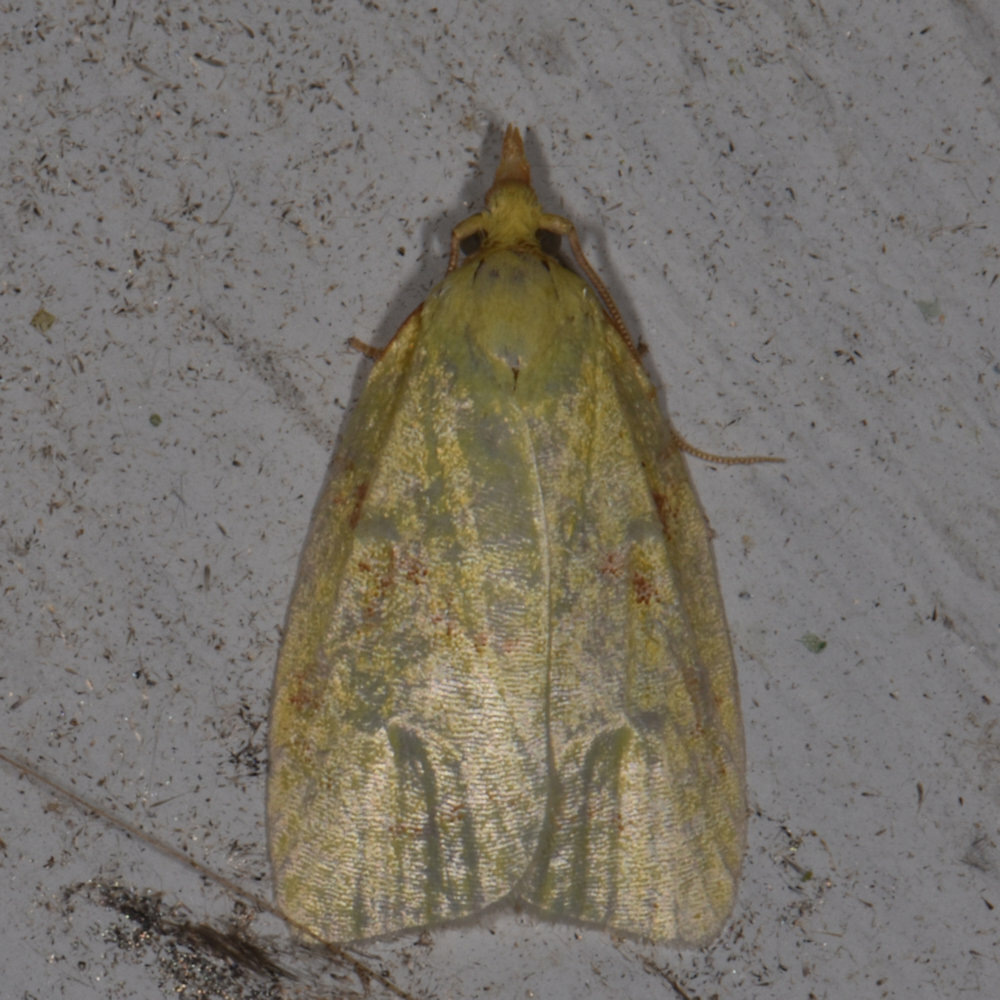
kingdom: Animalia
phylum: Arthropoda
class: Insecta
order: Lepidoptera
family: Tortricidae
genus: Cenopis
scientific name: Cenopis pettitana
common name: Maple-basswood leafroller moth
